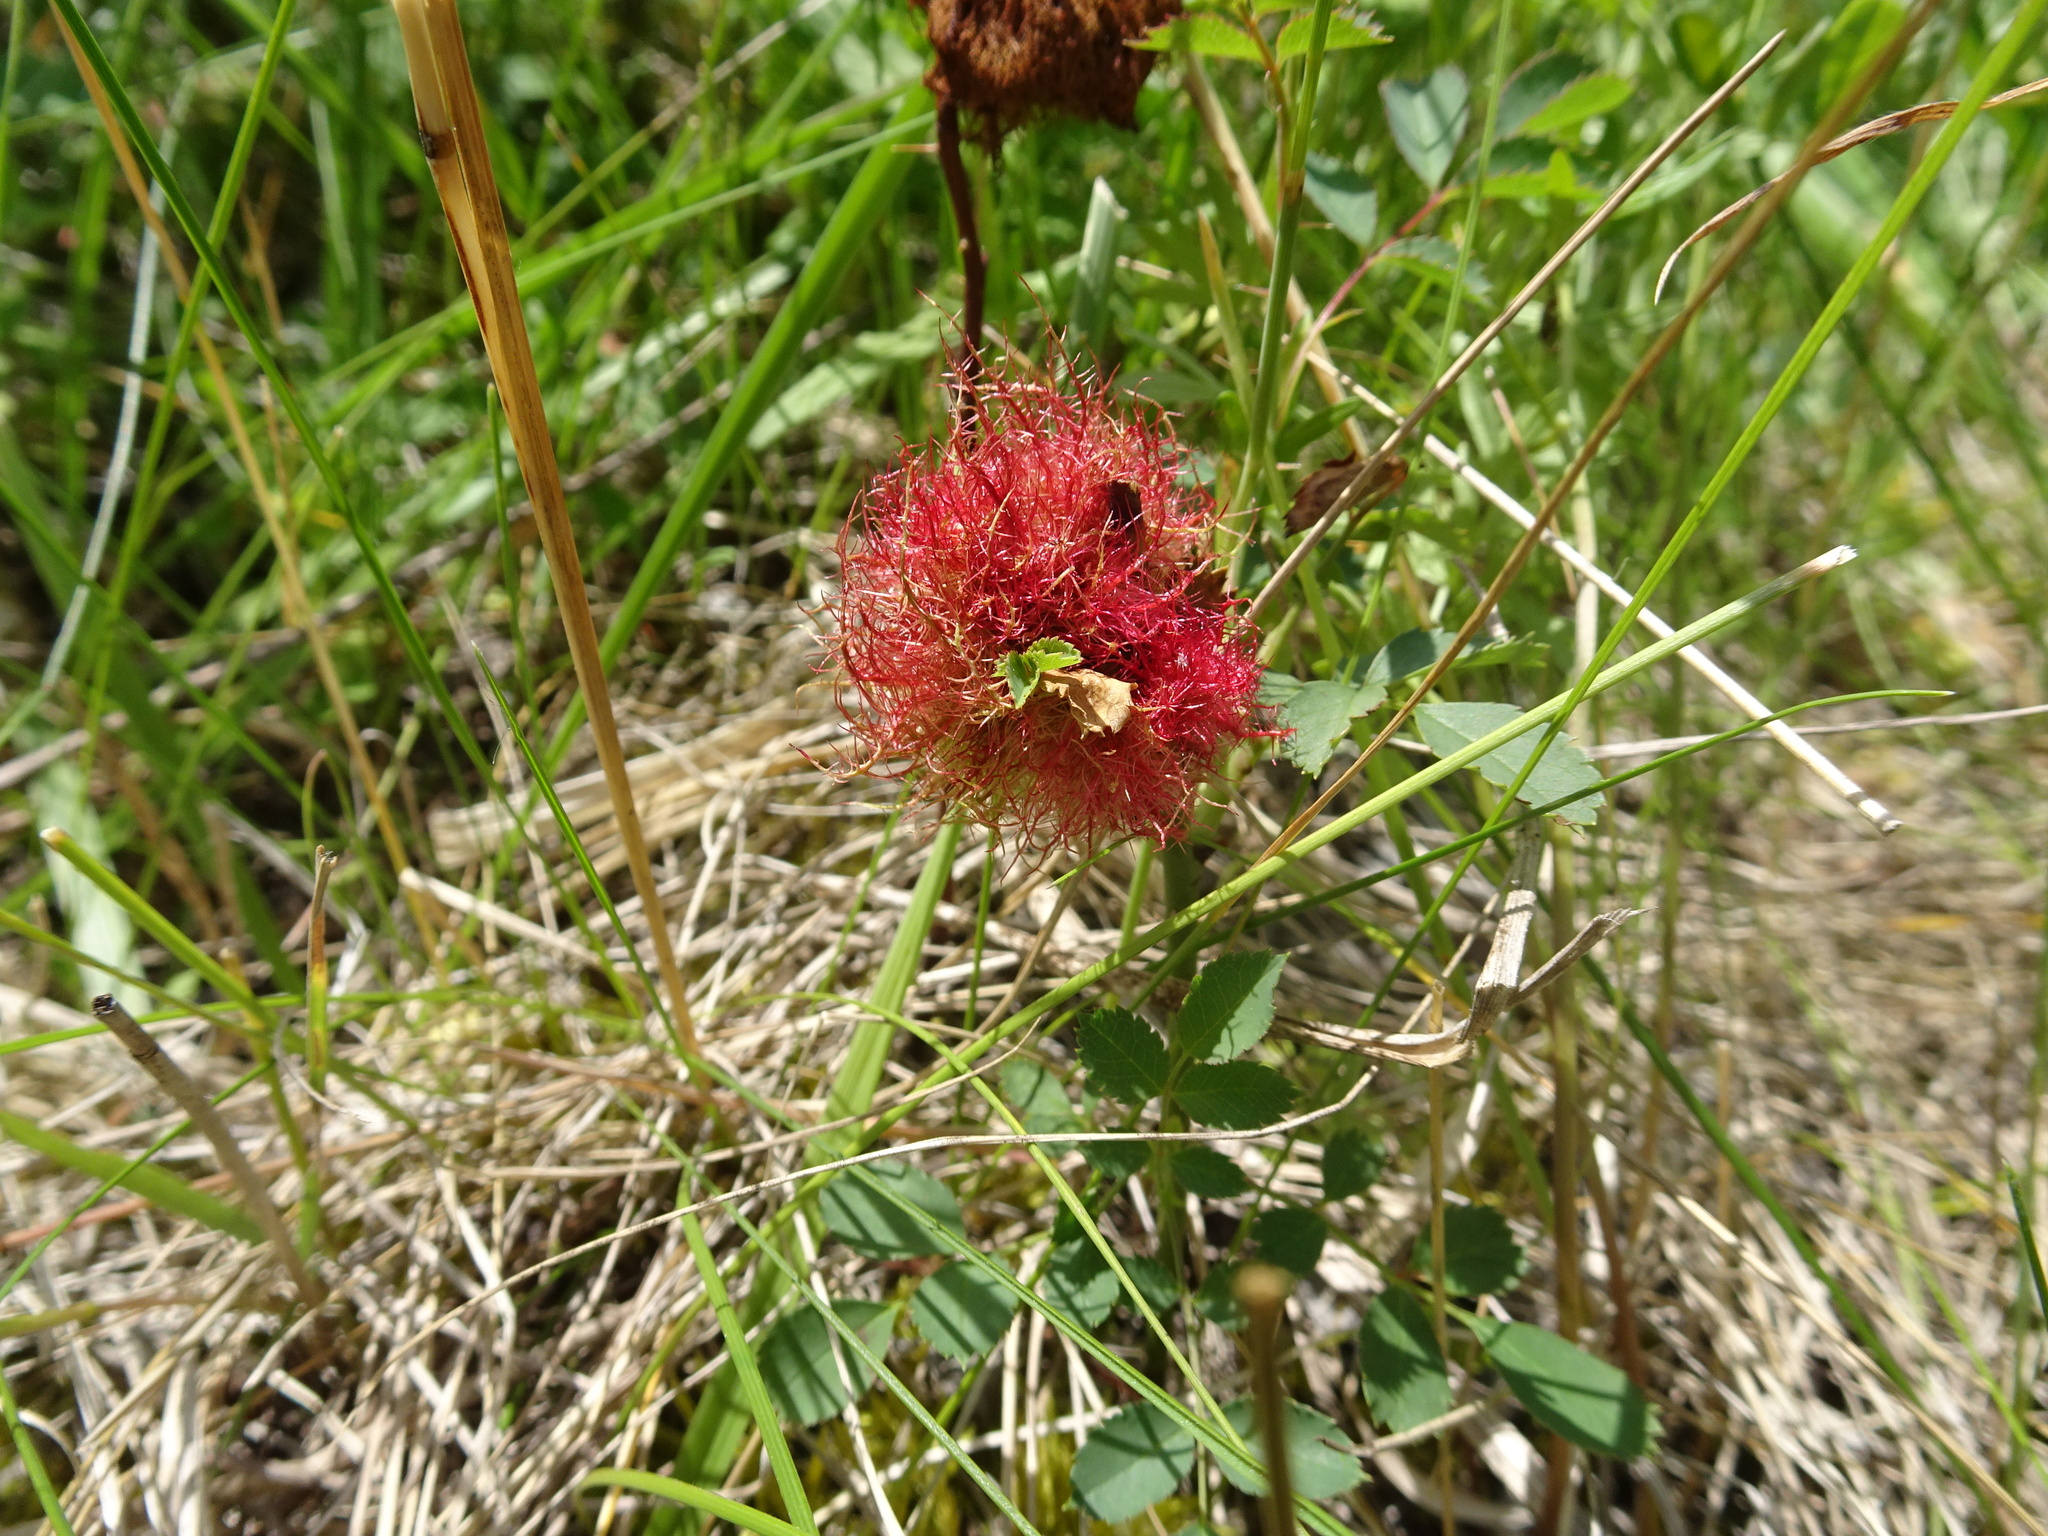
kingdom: Animalia
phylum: Arthropoda
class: Insecta
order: Hymenoptera
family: Cynipidae
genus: Diplolepis
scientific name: Diplolepis rosae
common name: Bedeguar gall
